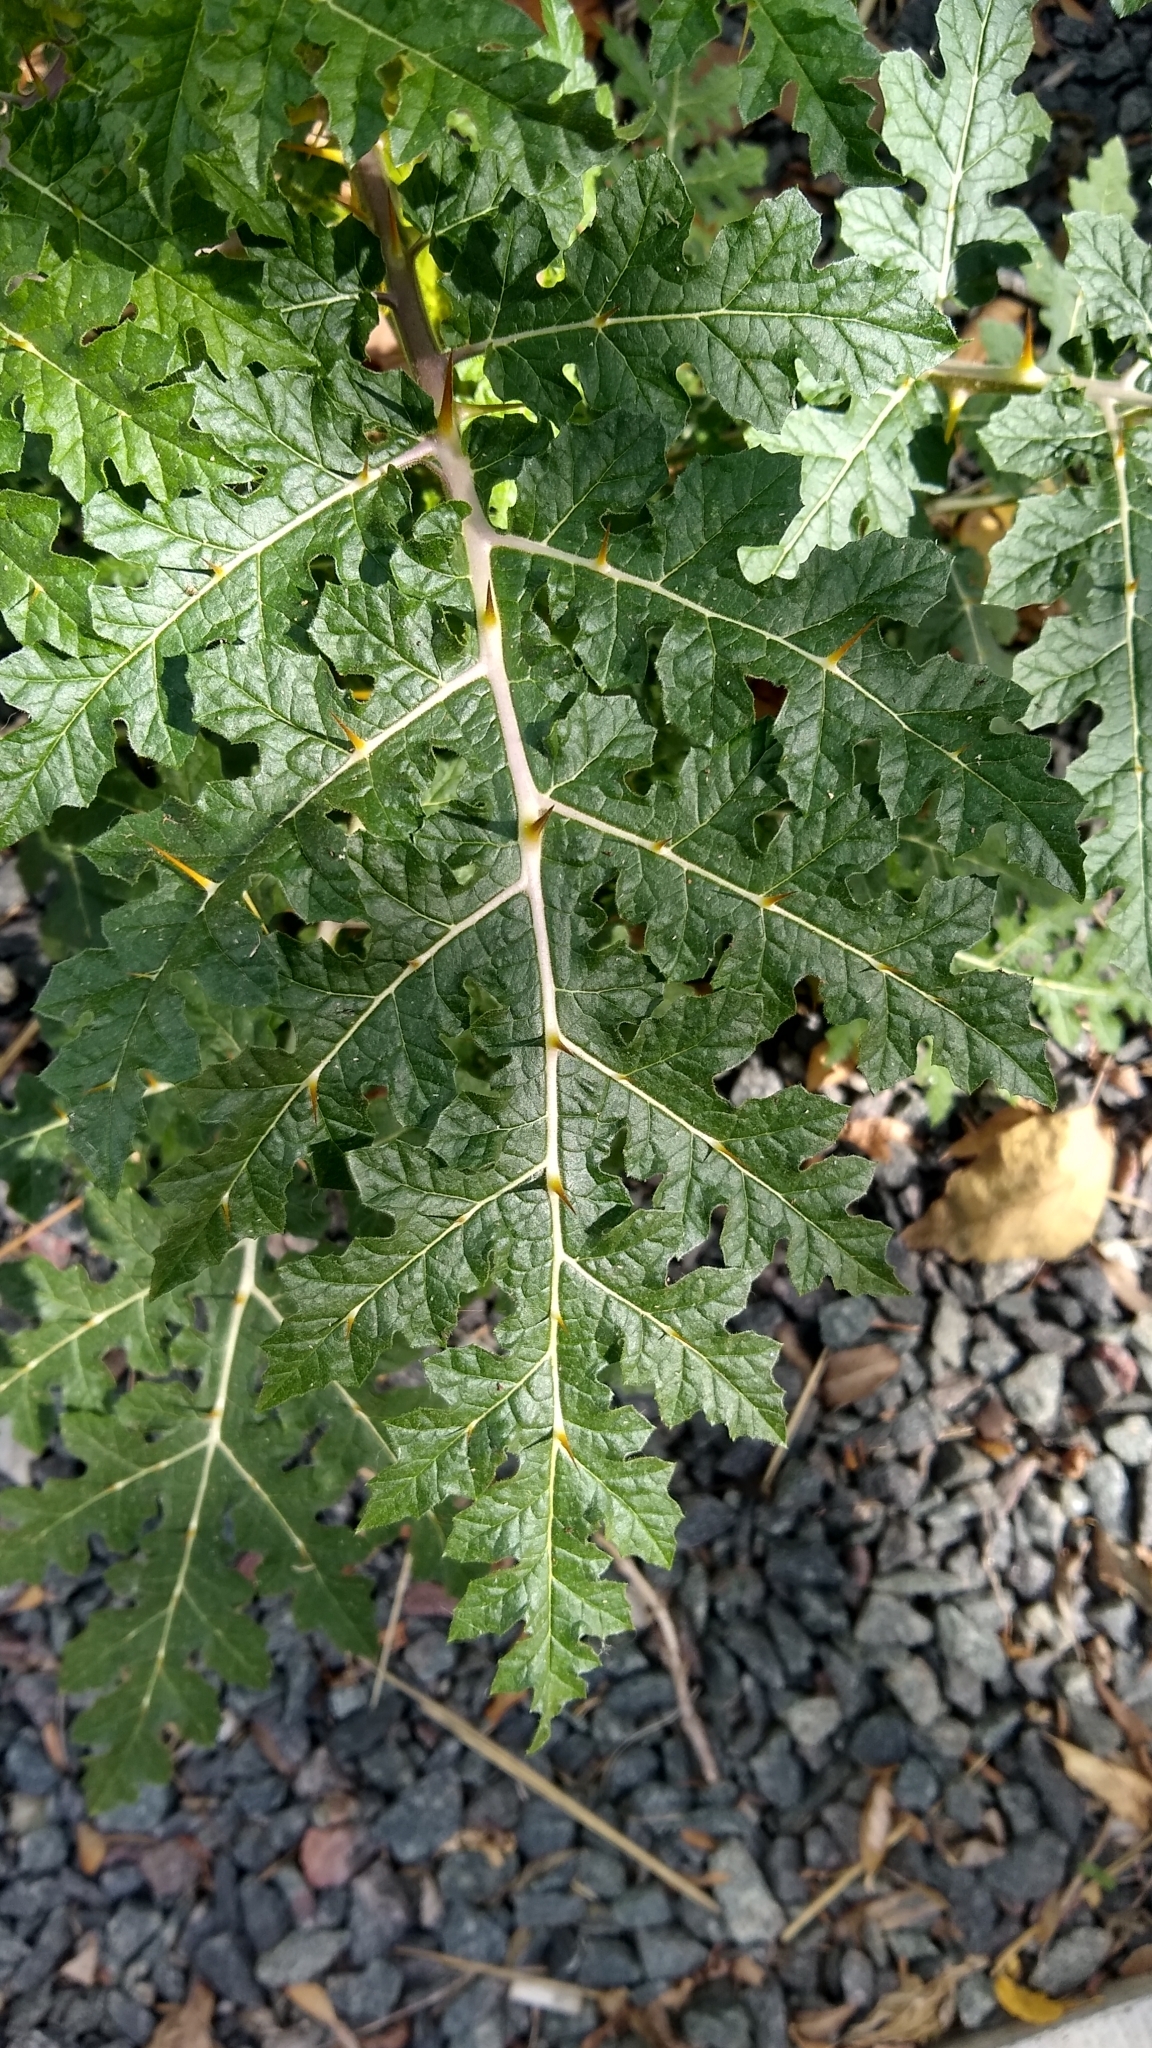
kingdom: Plantae
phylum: Tracheophyta
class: Magnoliopsida
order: Solanales
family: Solanaceae
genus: Solanum
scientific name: Solanum sisymbriifolium
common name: Red buffalo-bur
